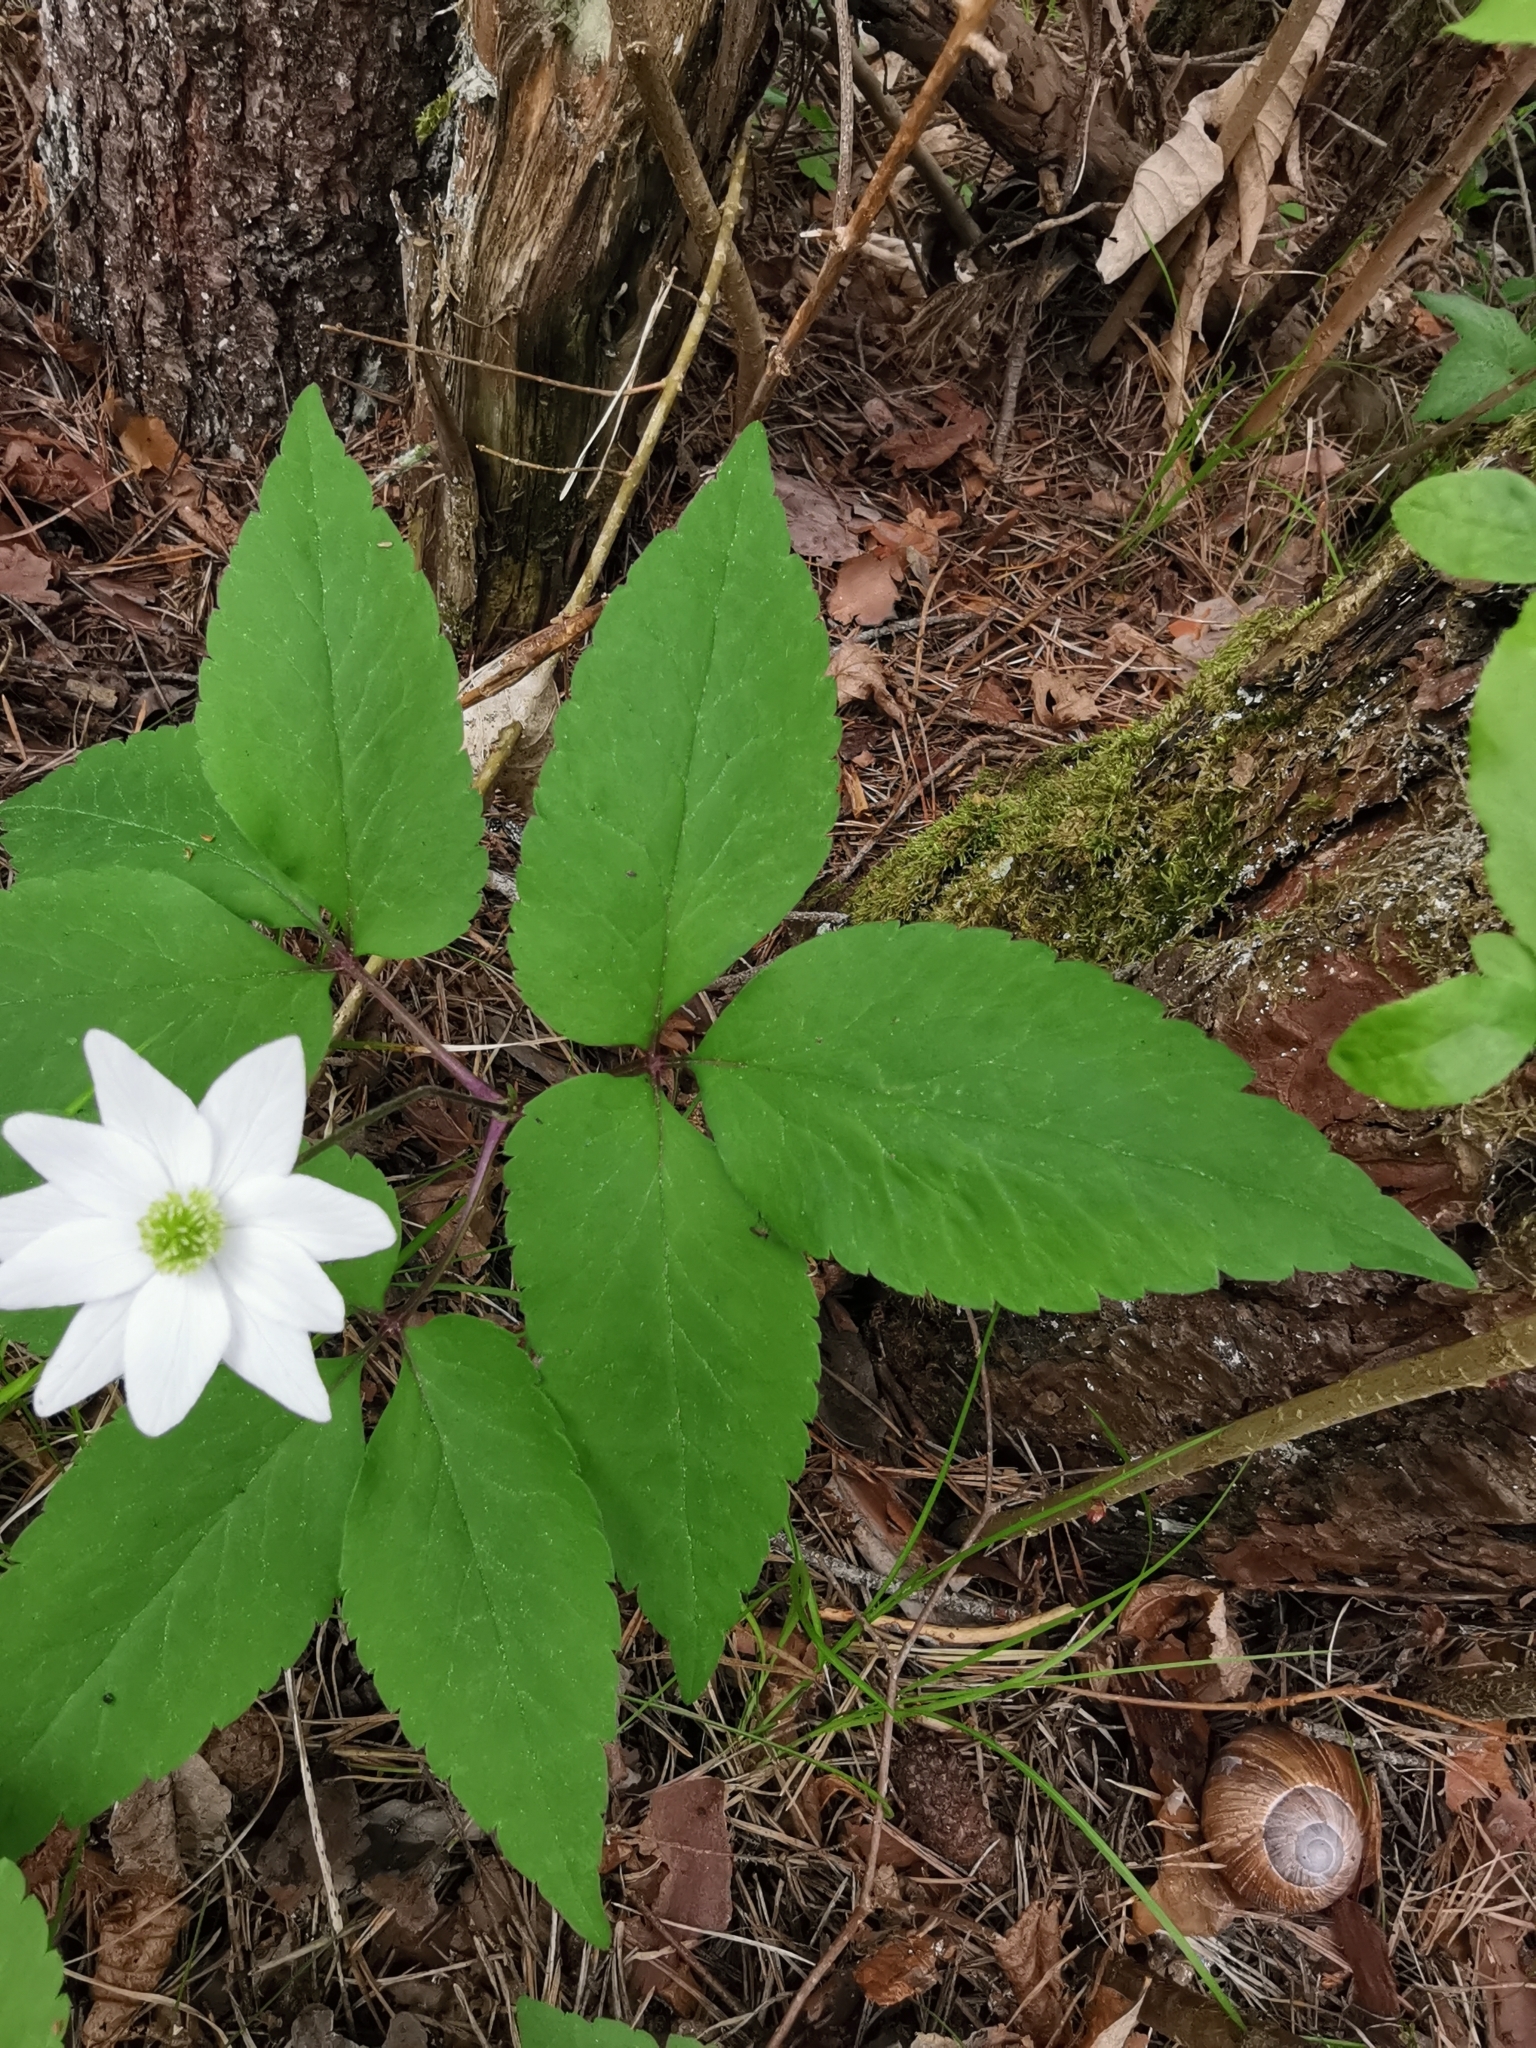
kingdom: Plantae
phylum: Tracheophyta
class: Magnoliopsida
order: Ranunculales
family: Ranunculaceae
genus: Anemone
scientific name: Anemone trifolia
